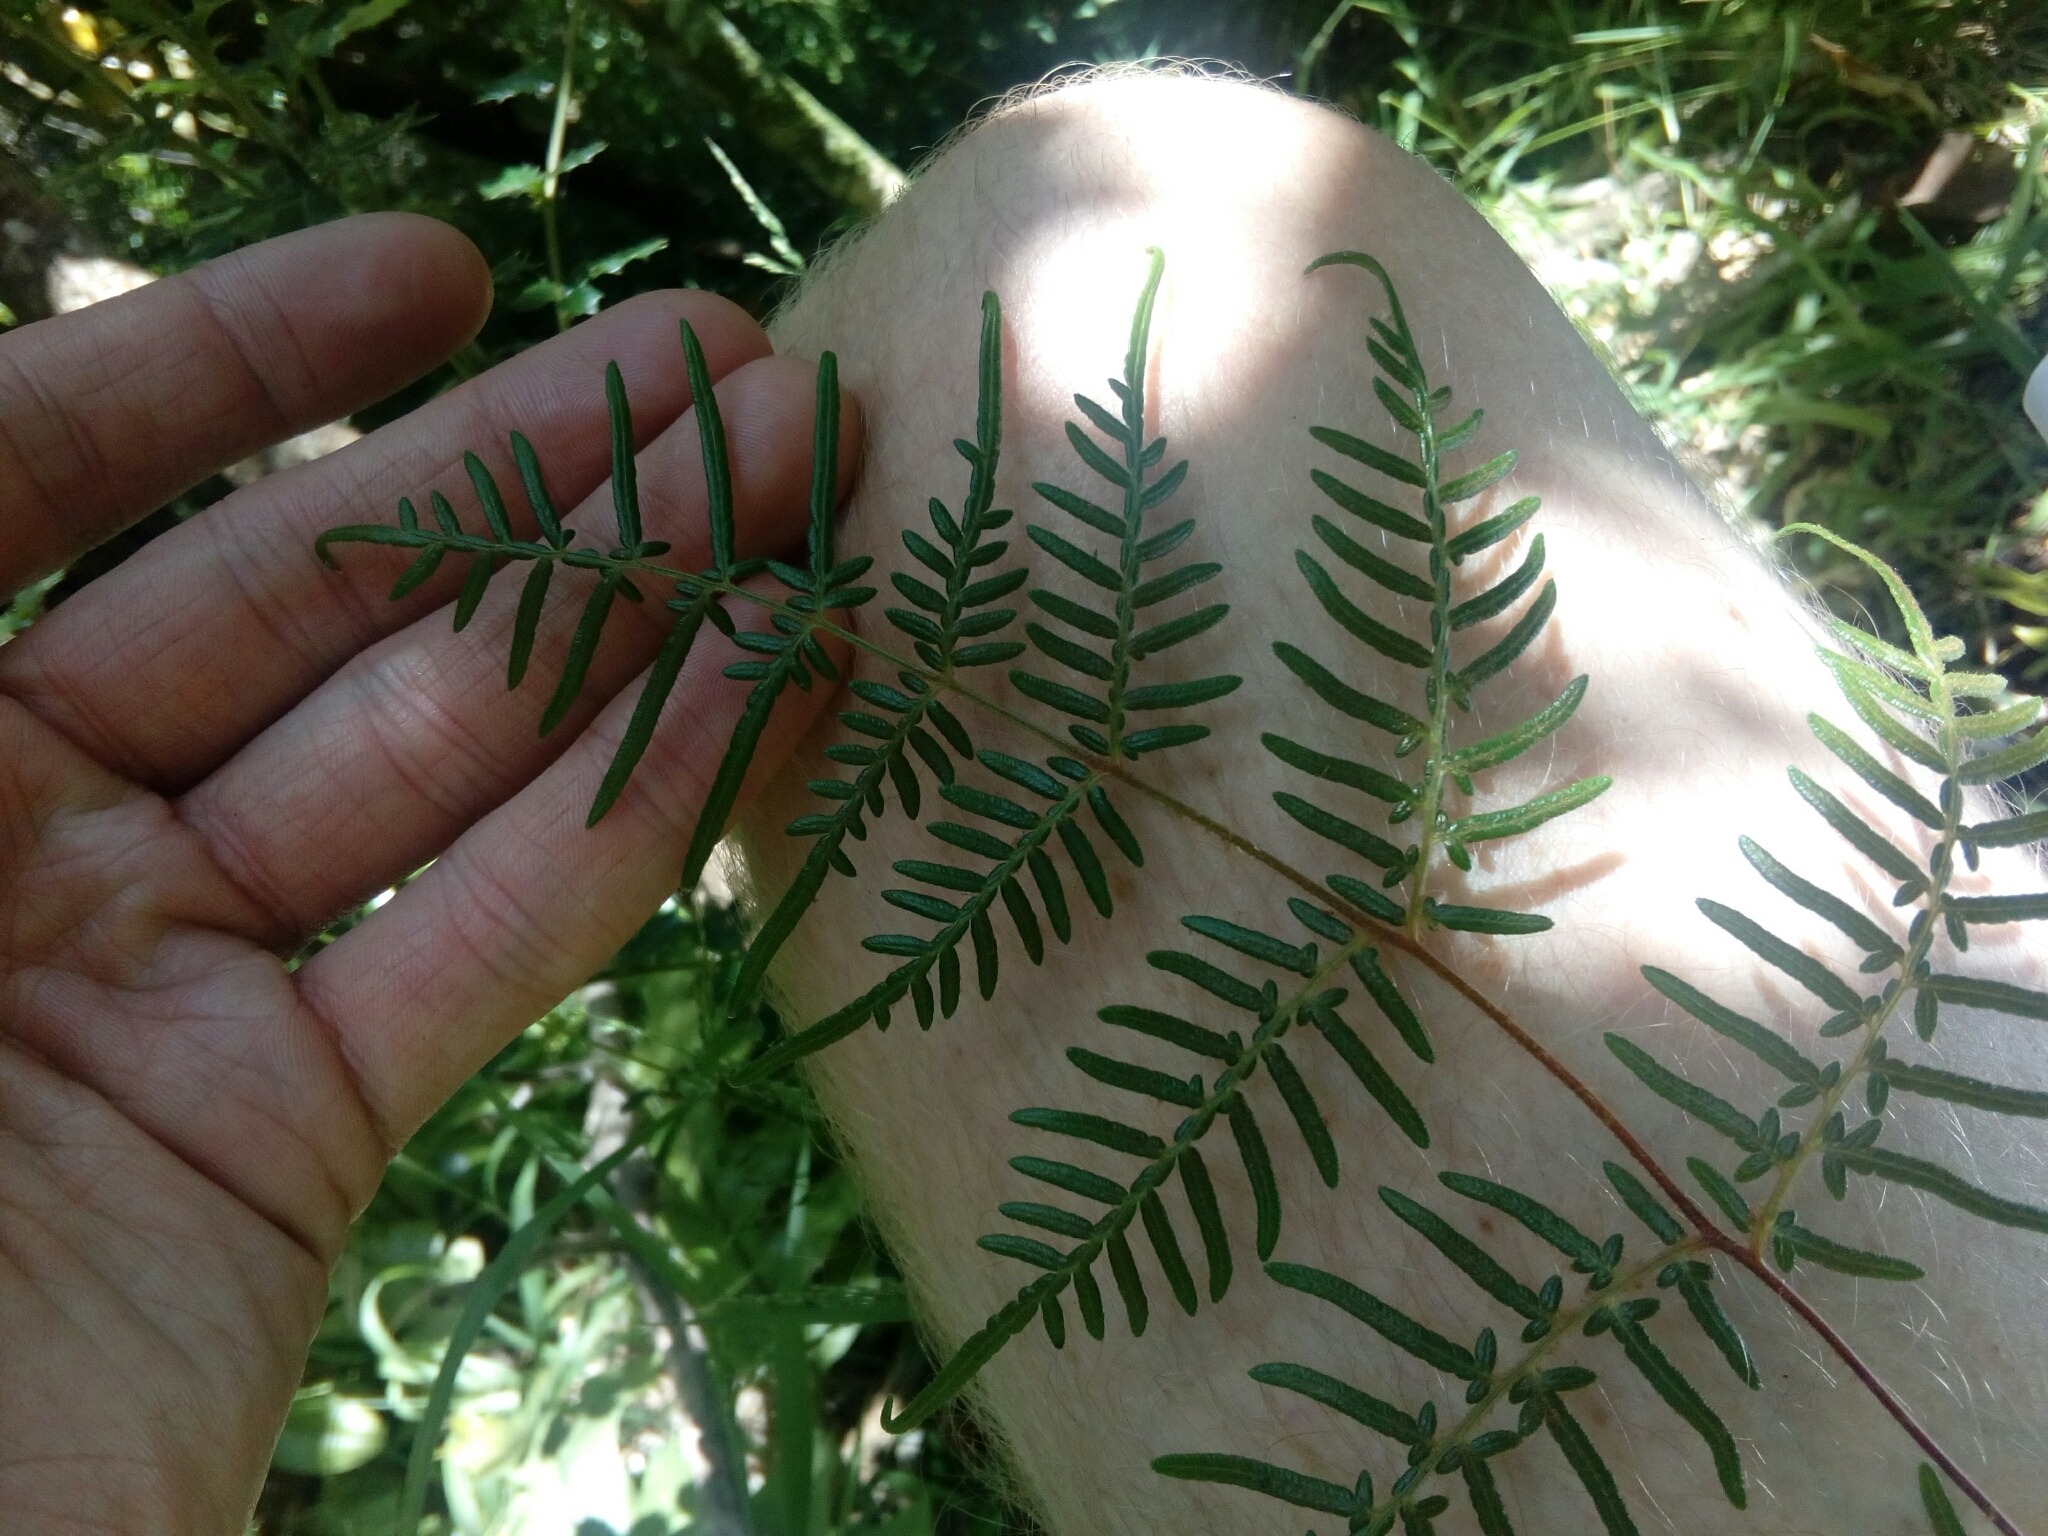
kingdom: Plantae
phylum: Tracheophyta
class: Polypodiopsida
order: Polypodiales
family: Dennstaedtiaceae
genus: Pteridium
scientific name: Pteridium esculentum
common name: Bracken fern
